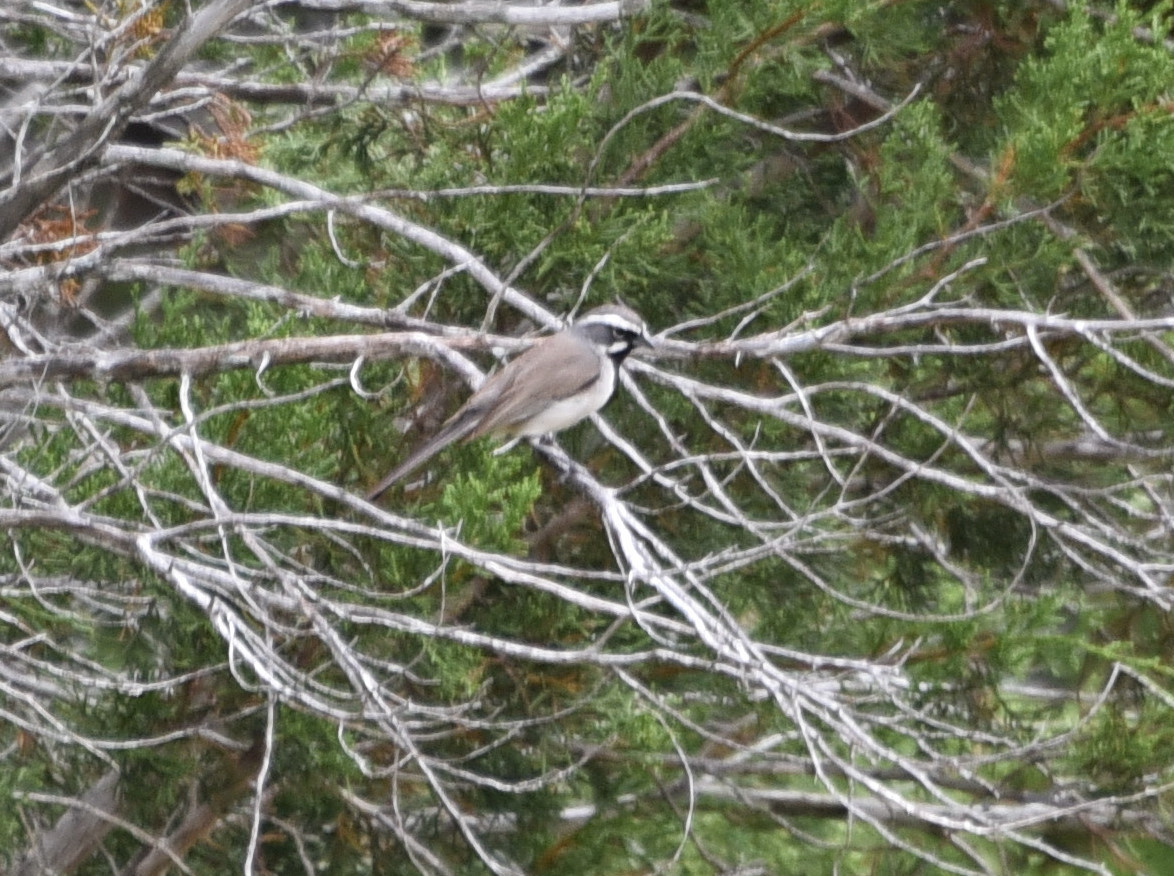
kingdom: Animalia
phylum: Chordata
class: Aves
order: Passeriformes
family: Passerellidae
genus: Amphispiza
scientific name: Amphispiza bilineata
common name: Black-throated sparrow
